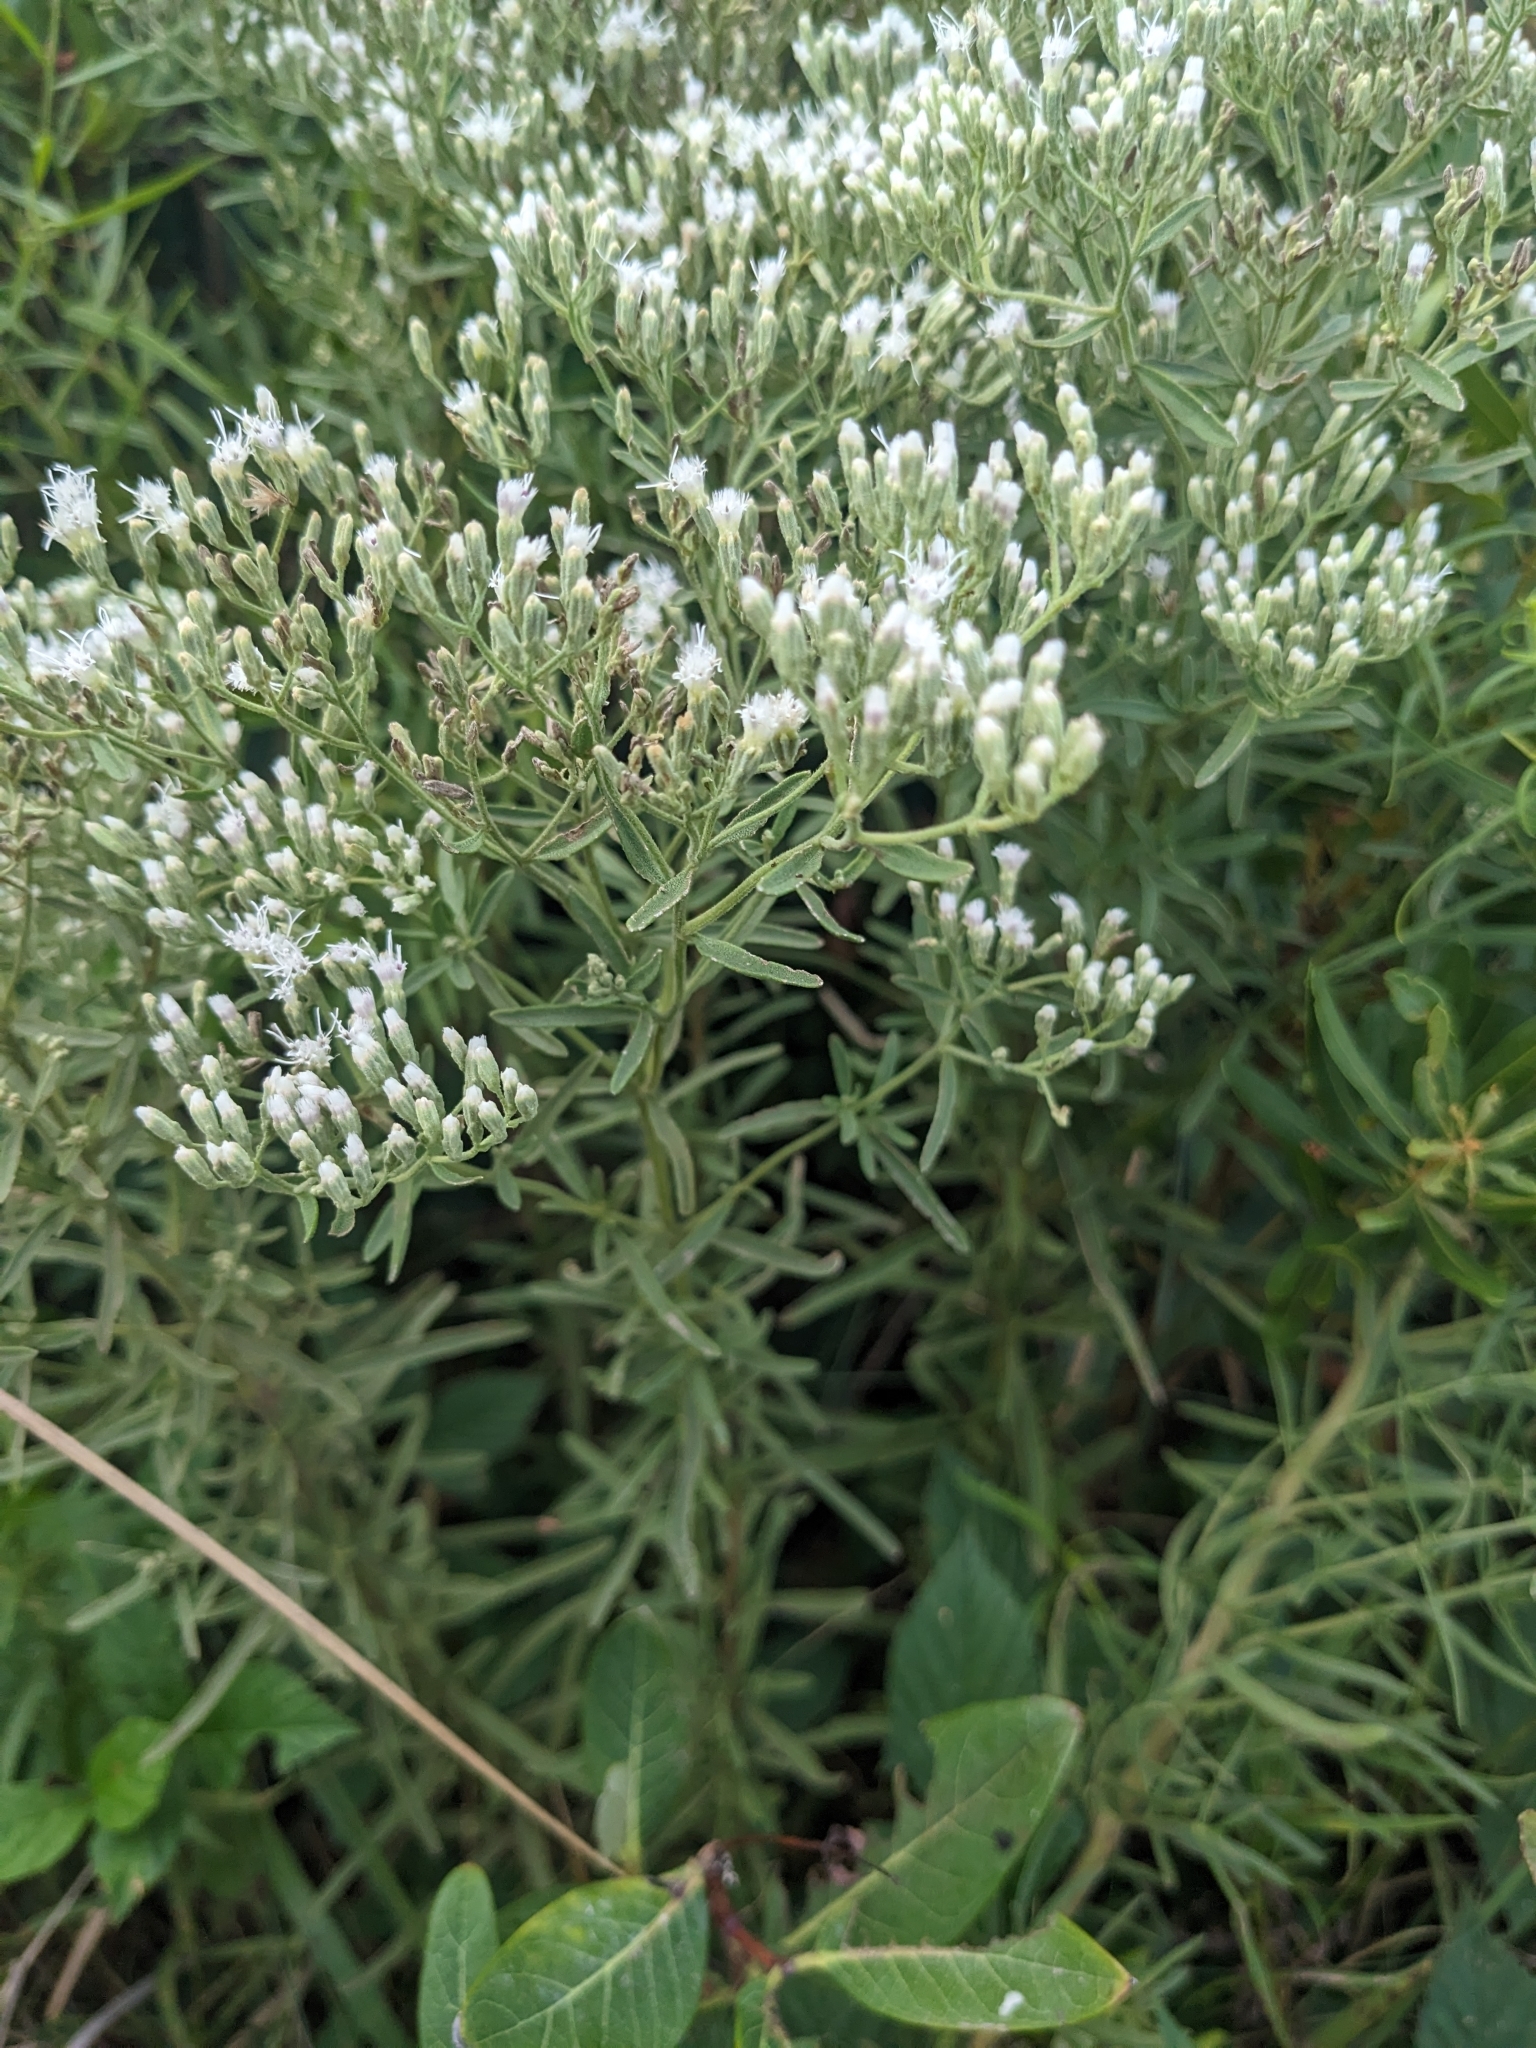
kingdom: Plantae
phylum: Tracheophyta
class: Magnoliopsida
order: Asterales
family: Asteraceae
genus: Eupatorium
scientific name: Eupatorium linearifolium
